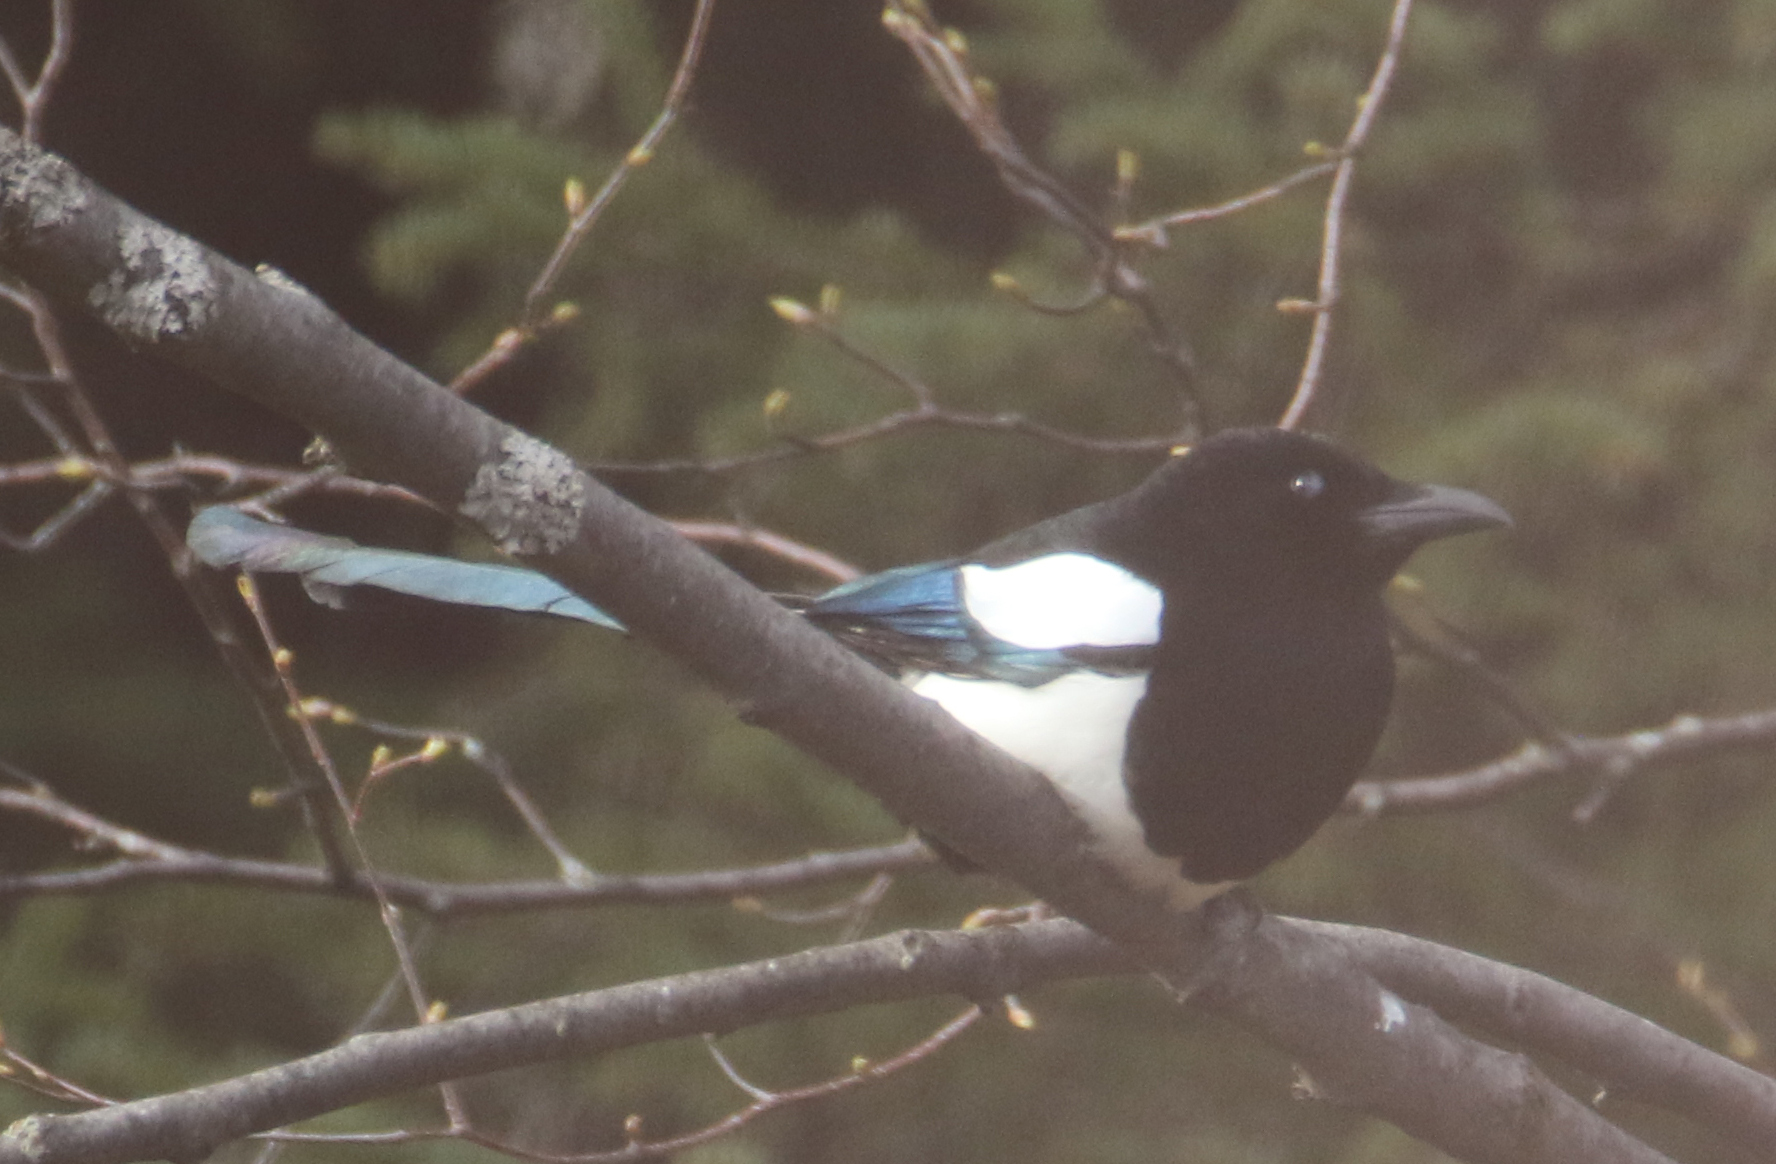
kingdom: Animalia
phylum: Chordata
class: Aves
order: Passeriformes
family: Corvidae
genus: Pica
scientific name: Pica hudsonia
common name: Black-billed magpie
